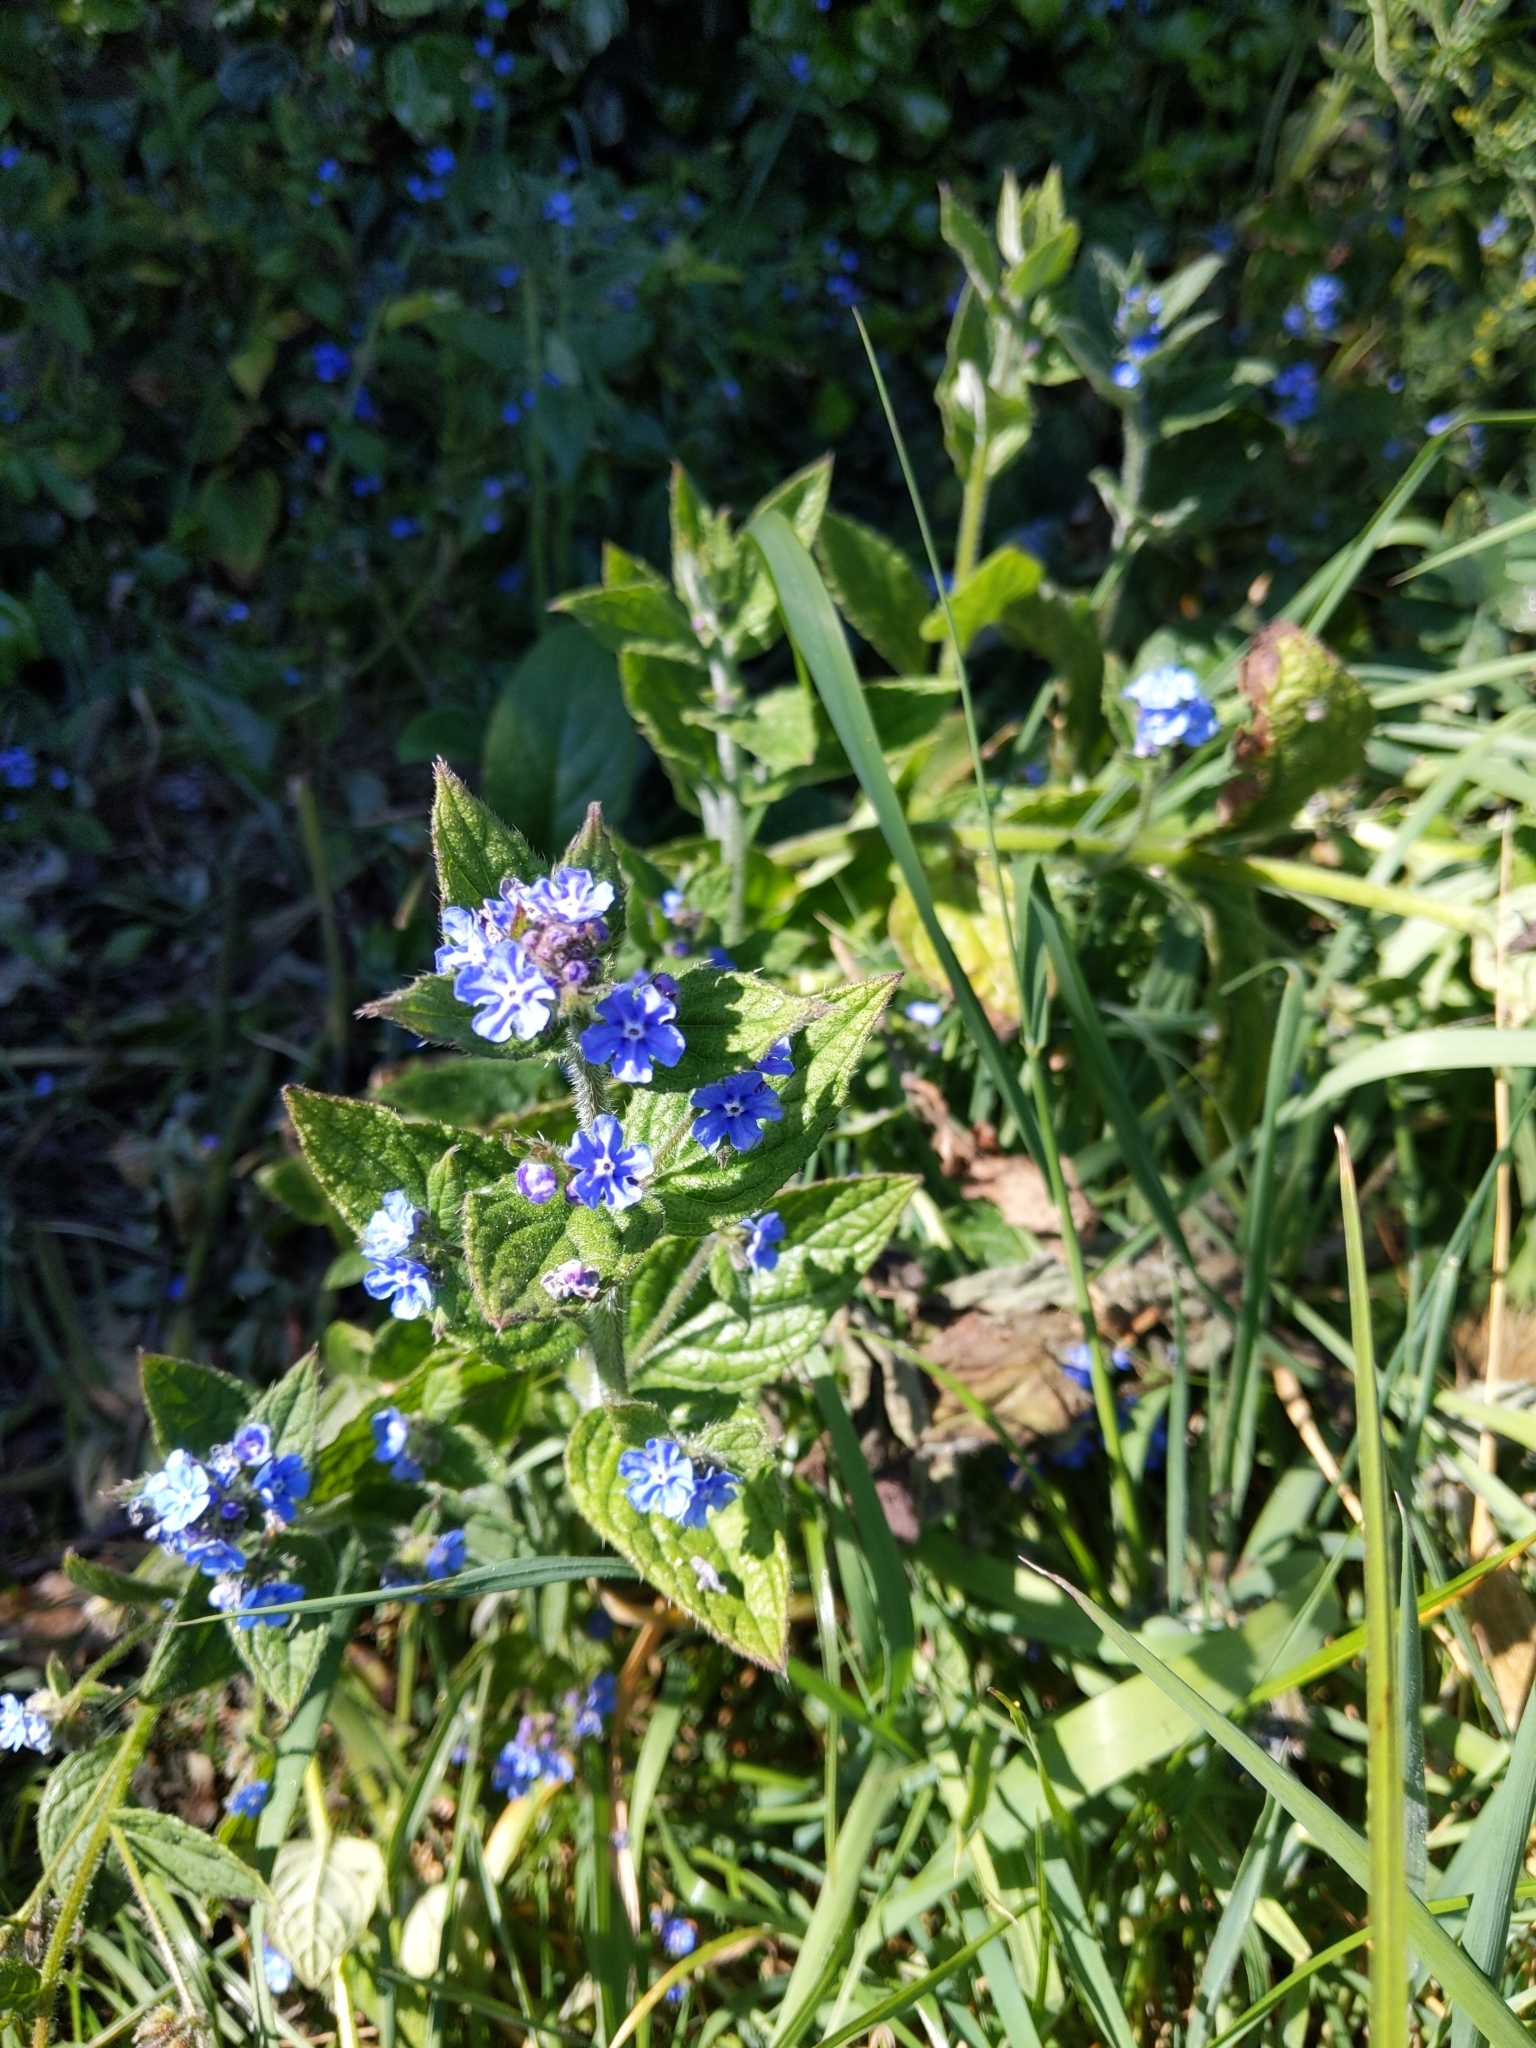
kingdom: Plantae
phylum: Tracheophyta
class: Magnoliopsida
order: Boraginales
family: Boraginaceae
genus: Pentaglottis
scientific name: Pentaglottis sempervirens
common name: Green alkanet
